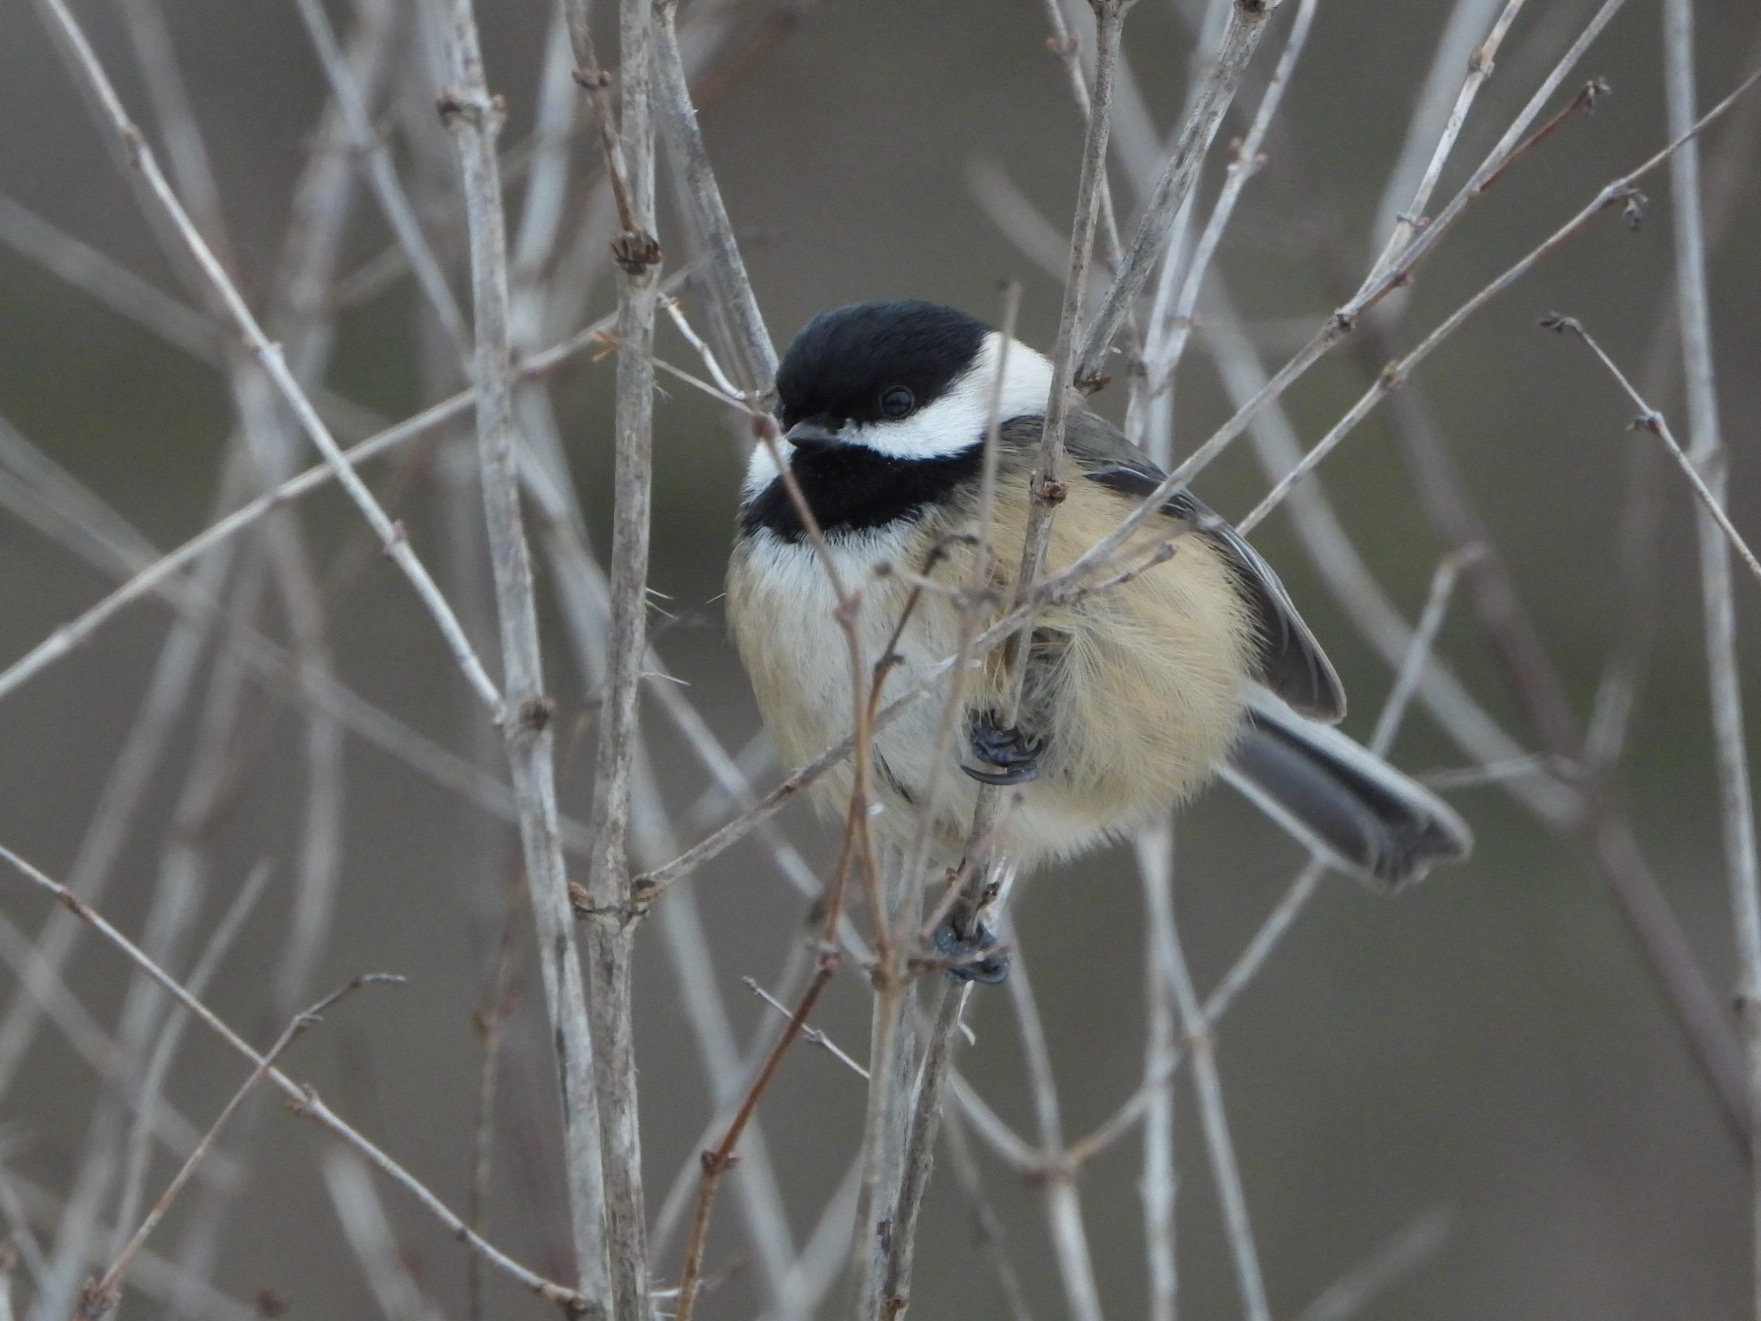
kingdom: Animalia
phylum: Chordata
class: Aves
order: Passeriformes
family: Paridae
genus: Poecile
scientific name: Poecile atricapillus
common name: Black-capped chickadee
